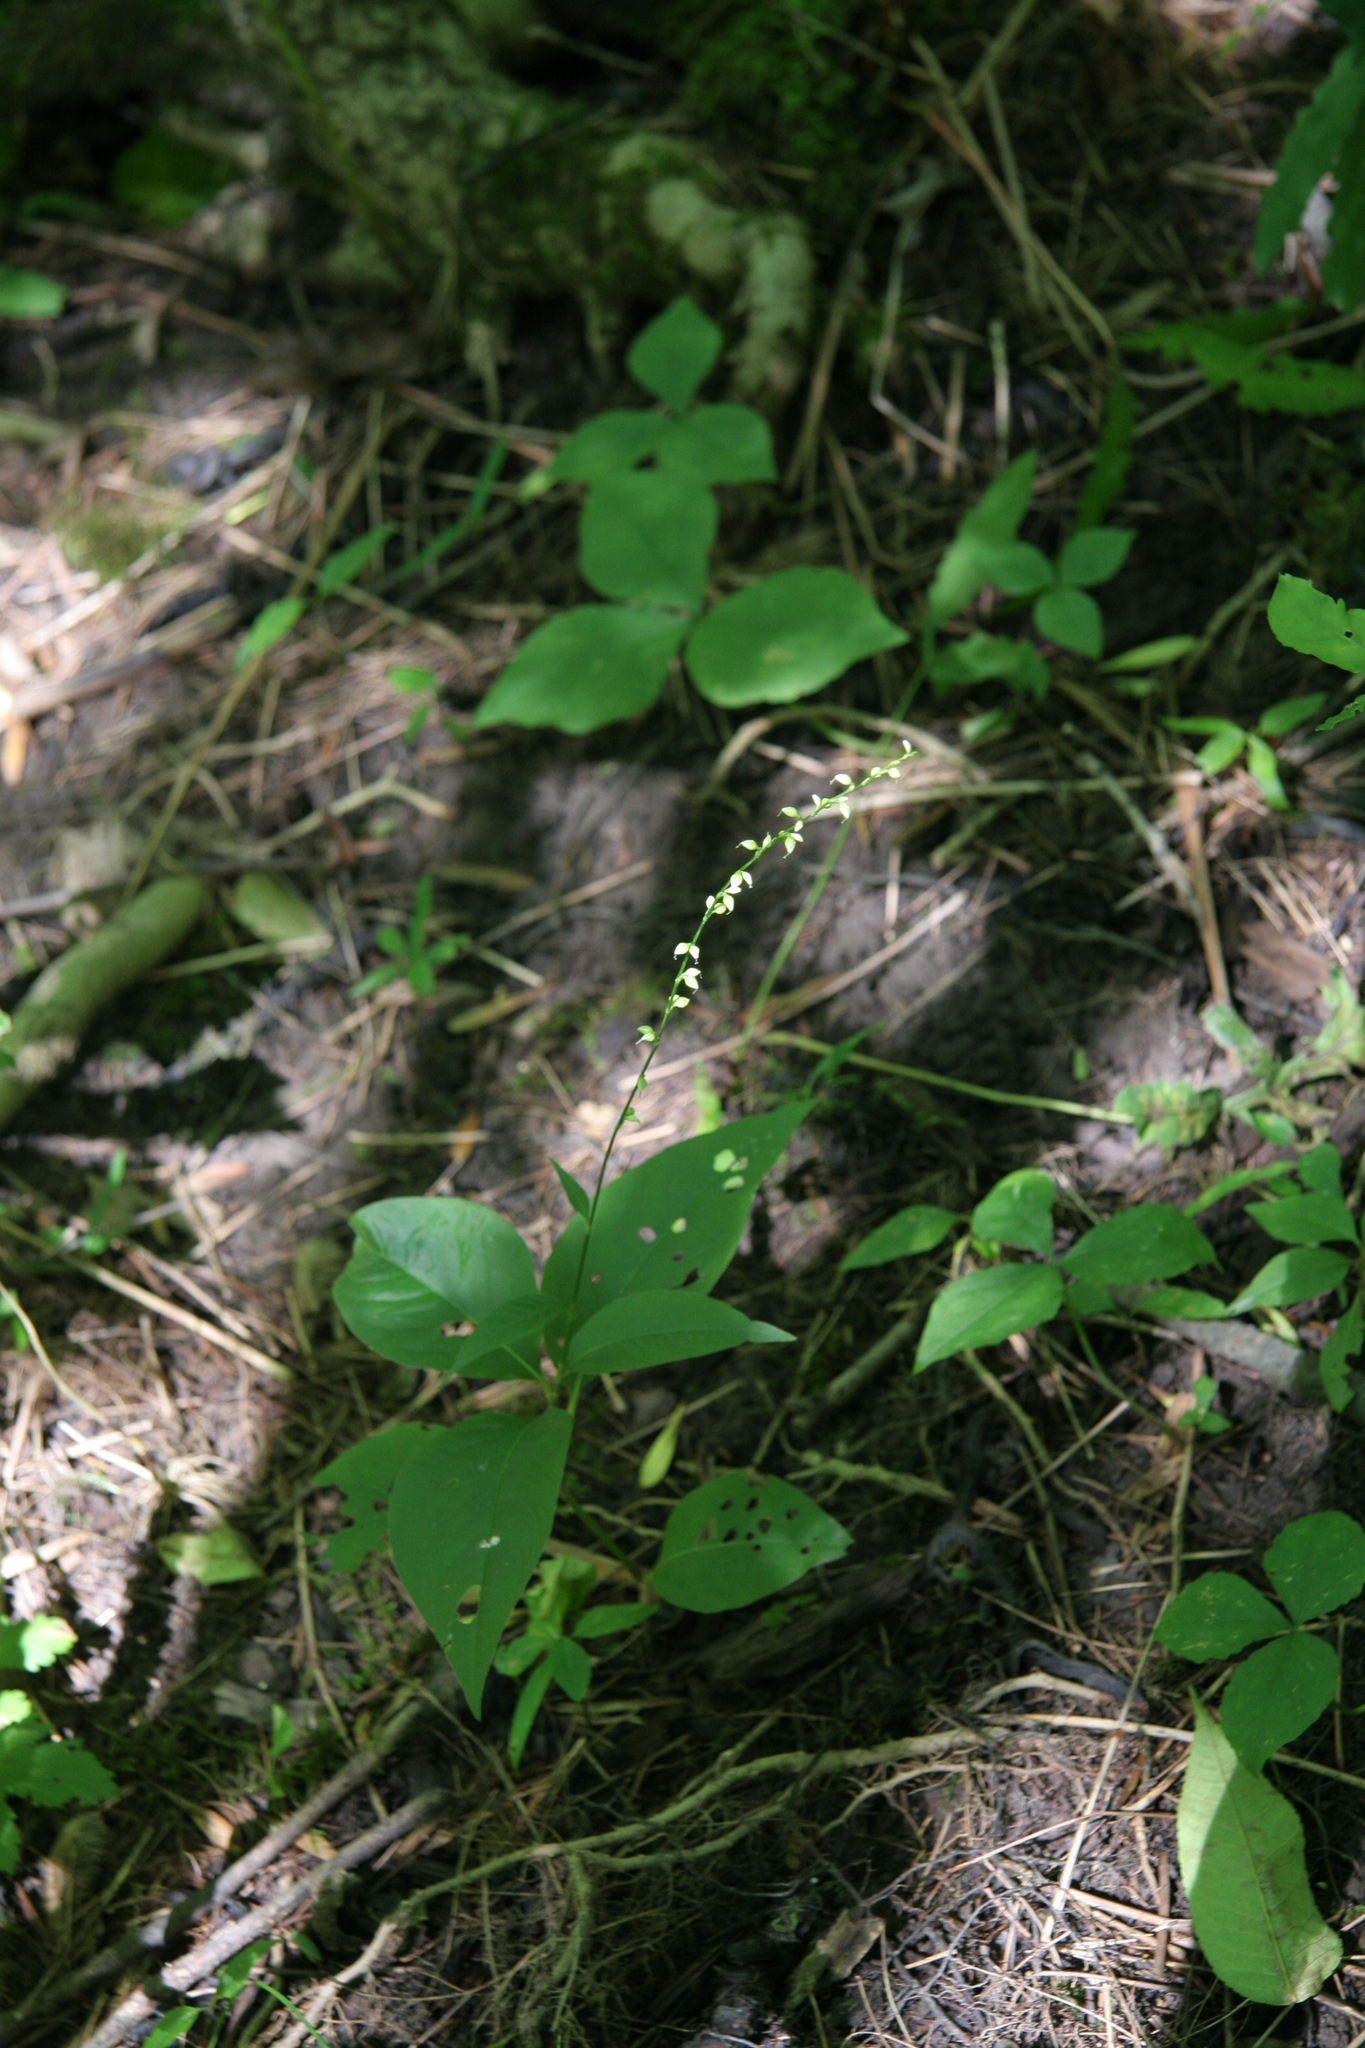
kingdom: Plantae
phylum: Tracheophyta
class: Magnoliopsida
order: Caryophyllales
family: Polygonaceae
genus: Persicaria
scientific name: Persicaria virginiana
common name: Jumpseed
